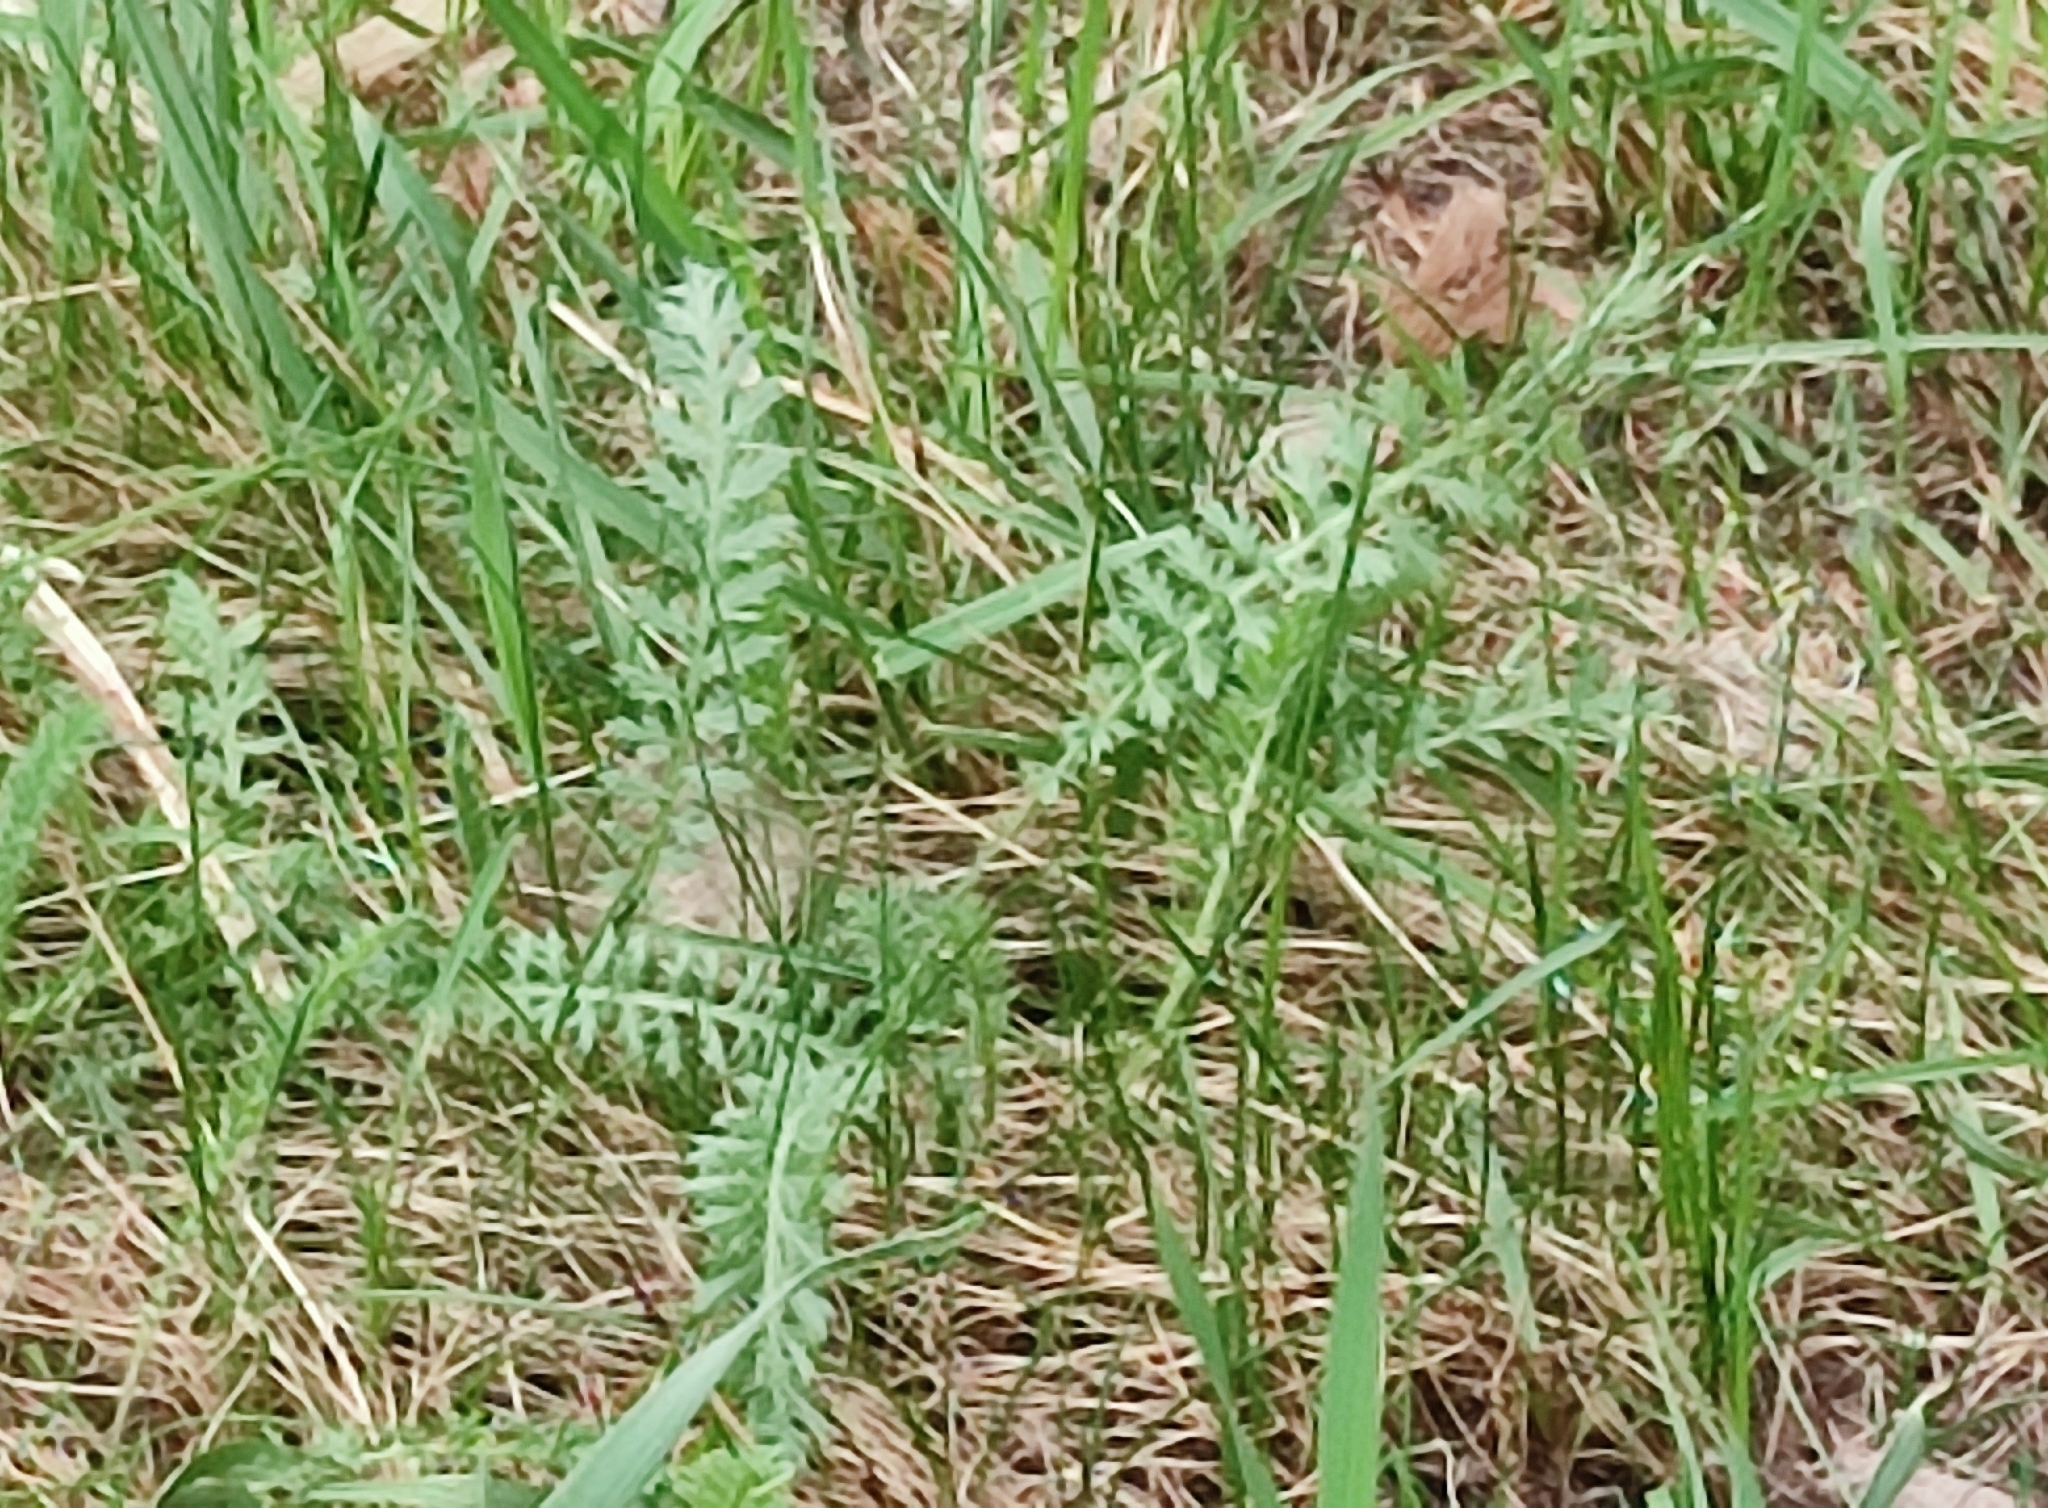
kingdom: Plantae
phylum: Tracheophyta
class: Magnoliopsida
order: Asterales
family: Asteraceae
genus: Achillea
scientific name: Achillea millefolium
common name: Yarrow
